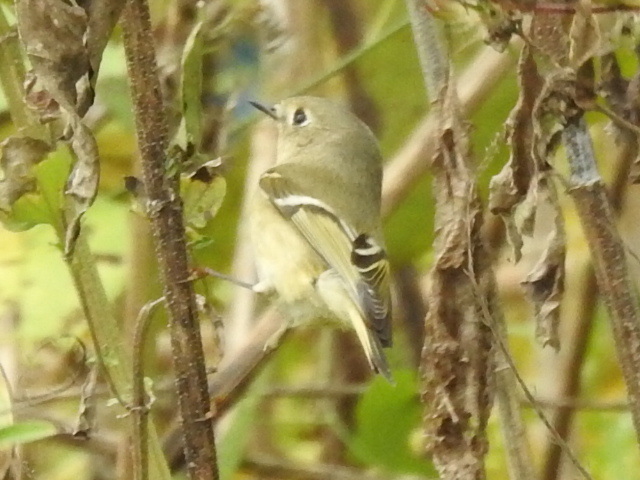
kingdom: Animalia
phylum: Chordata
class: Aves
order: Passeriformes
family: Regulidae
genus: Regulus
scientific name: Regulus calendula
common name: Ruby-crowned kinglet
